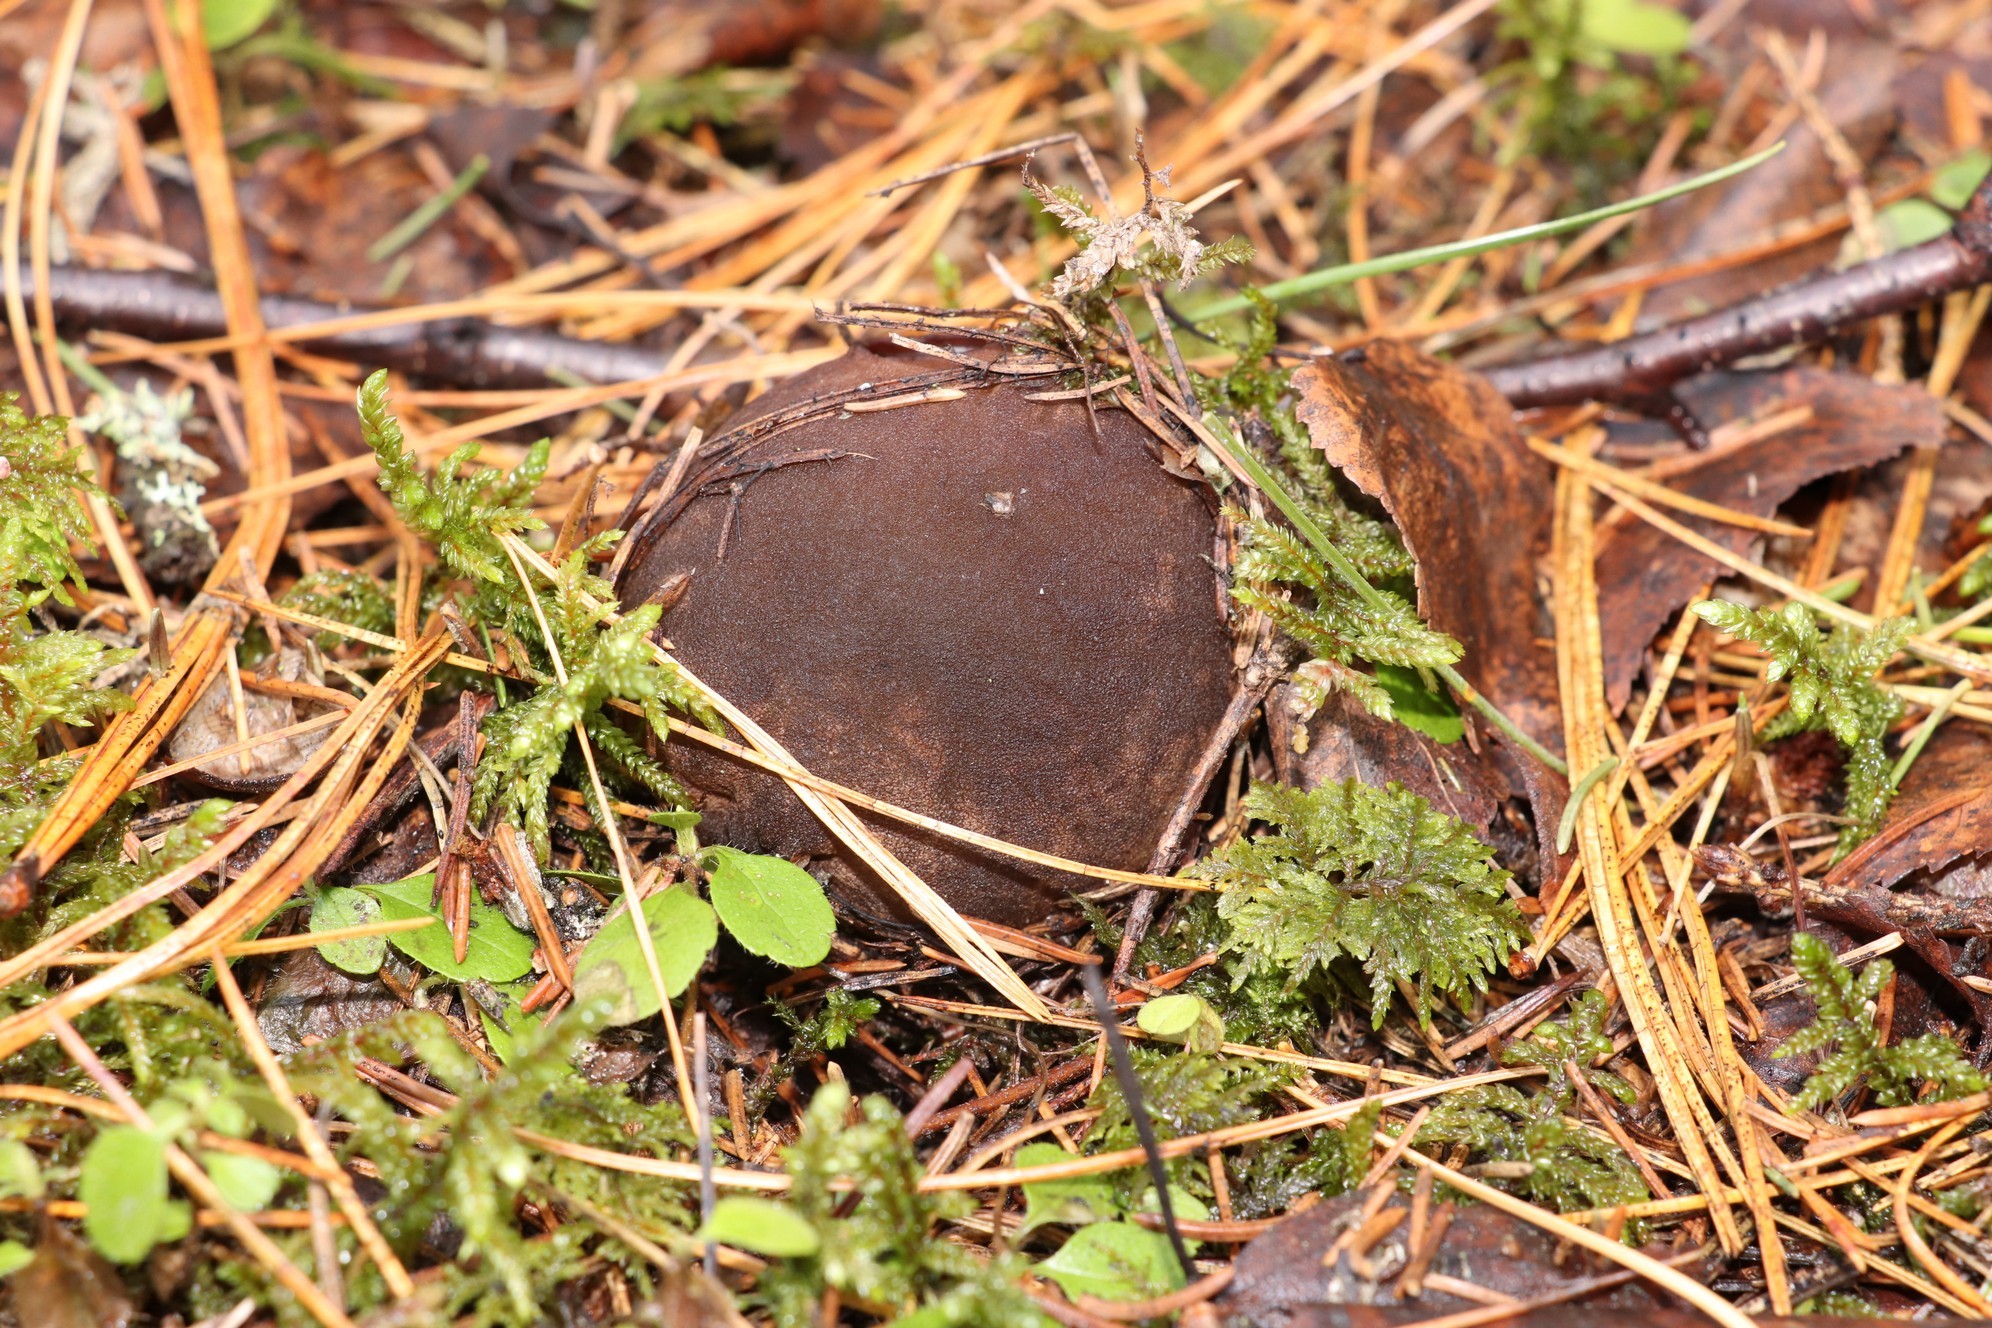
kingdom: Fungi
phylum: Ascomycota
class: Pezizomycetes
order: Pezizales
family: Sarcosomataceae
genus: Sarcosoma
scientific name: Sarcosoma globosum
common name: Charred-pancake cup
